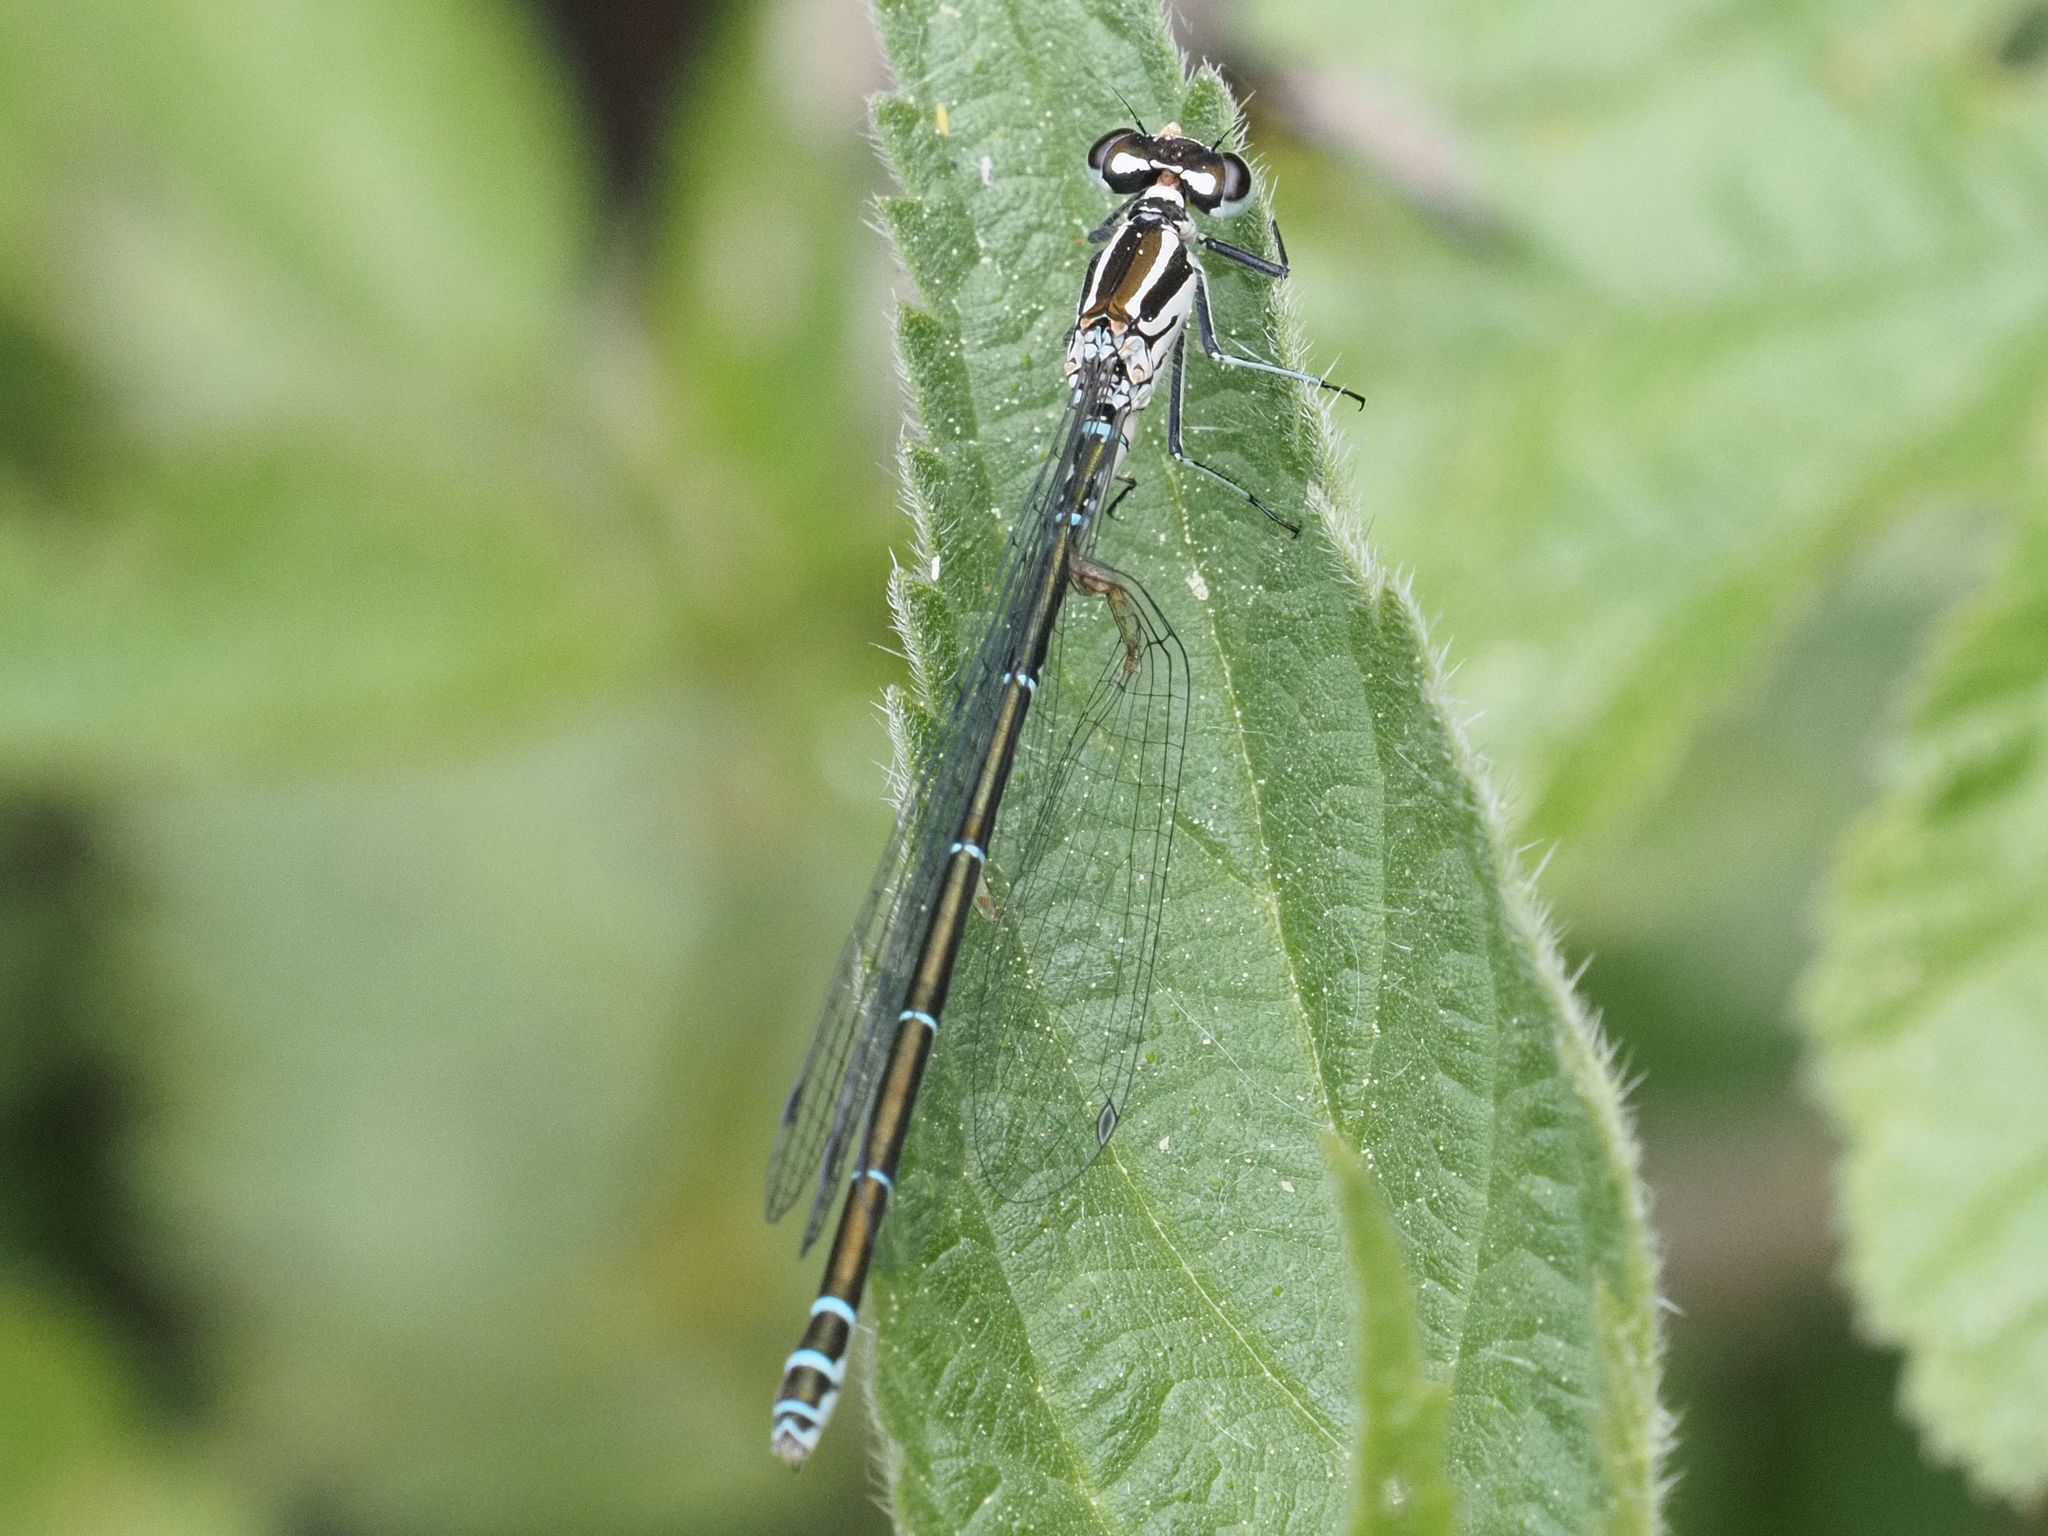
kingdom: Animalia
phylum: Arthropoda
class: Insecta
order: Odonata
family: Coenagrionidae
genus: Coenagrion
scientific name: Coenagrion puella
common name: Azure damselfly
